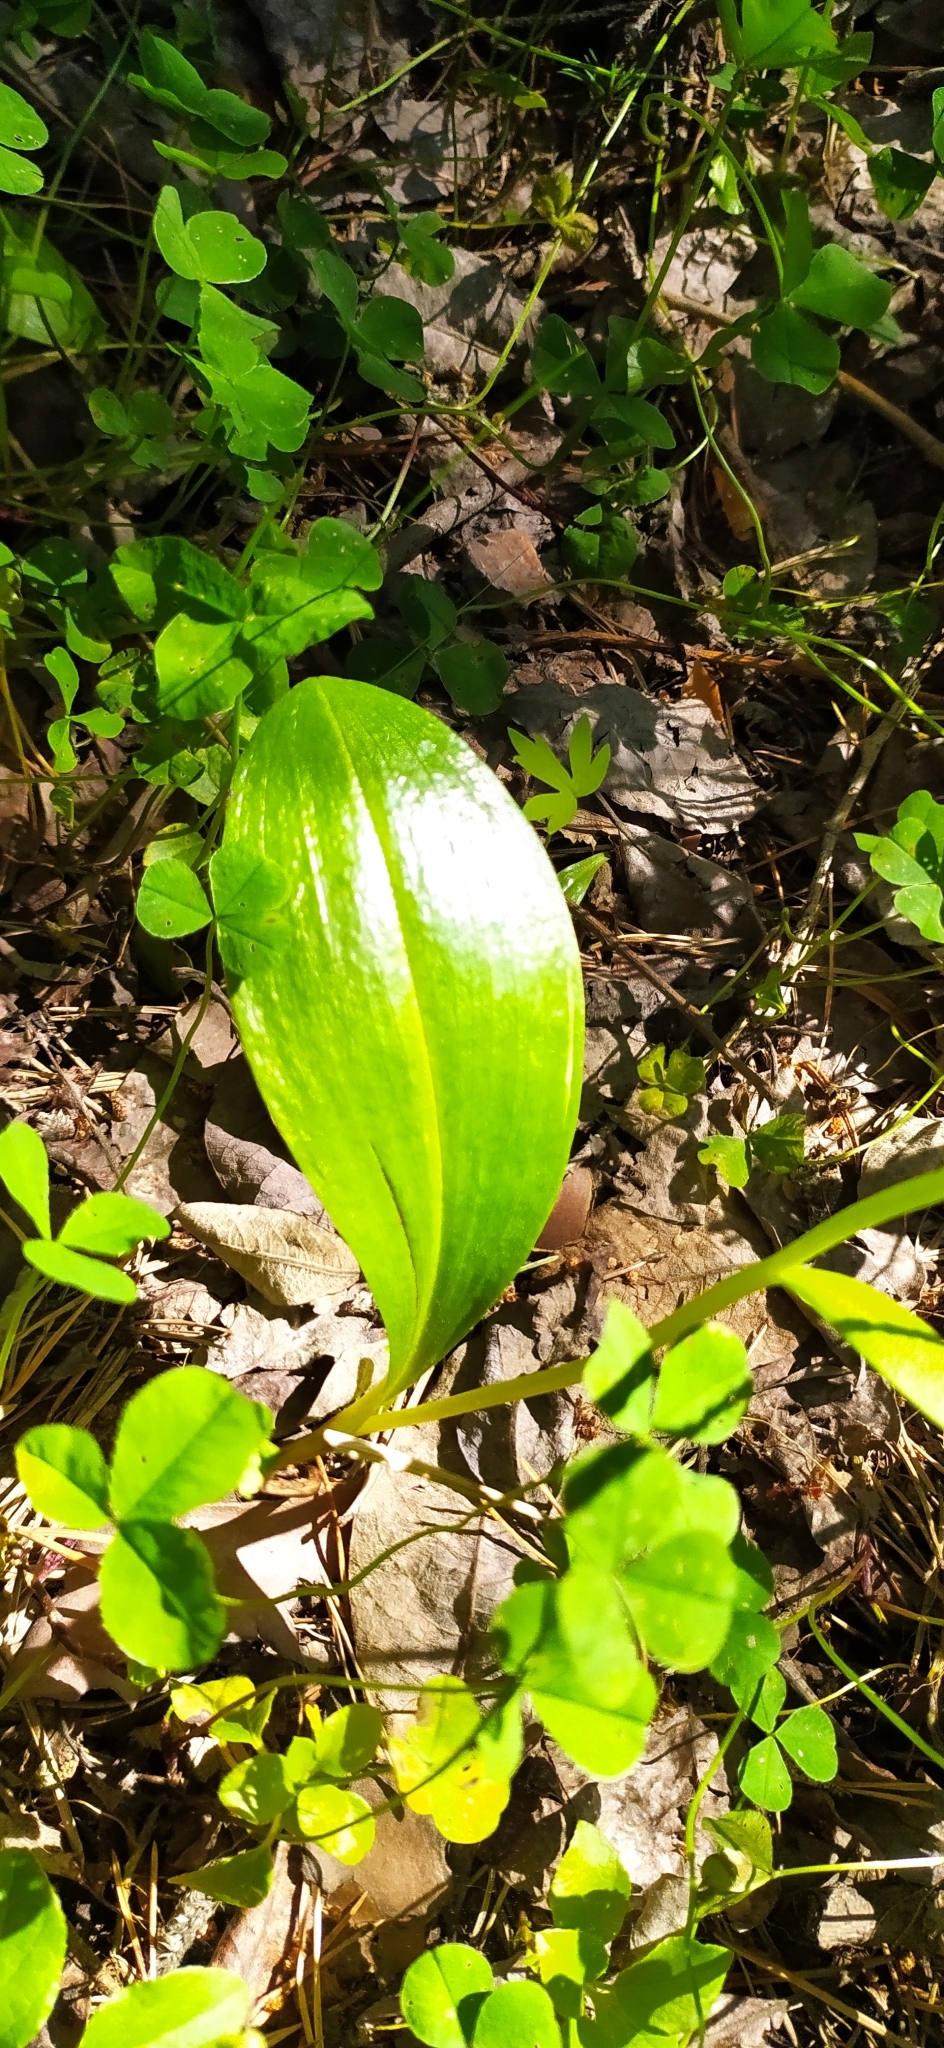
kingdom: Plantae
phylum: Tracheophyta
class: Liliopsida
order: Asparagales
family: Orchidaceae
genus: Platanthera
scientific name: Platanthera bifolia
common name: Lesser butterfly-orchid
